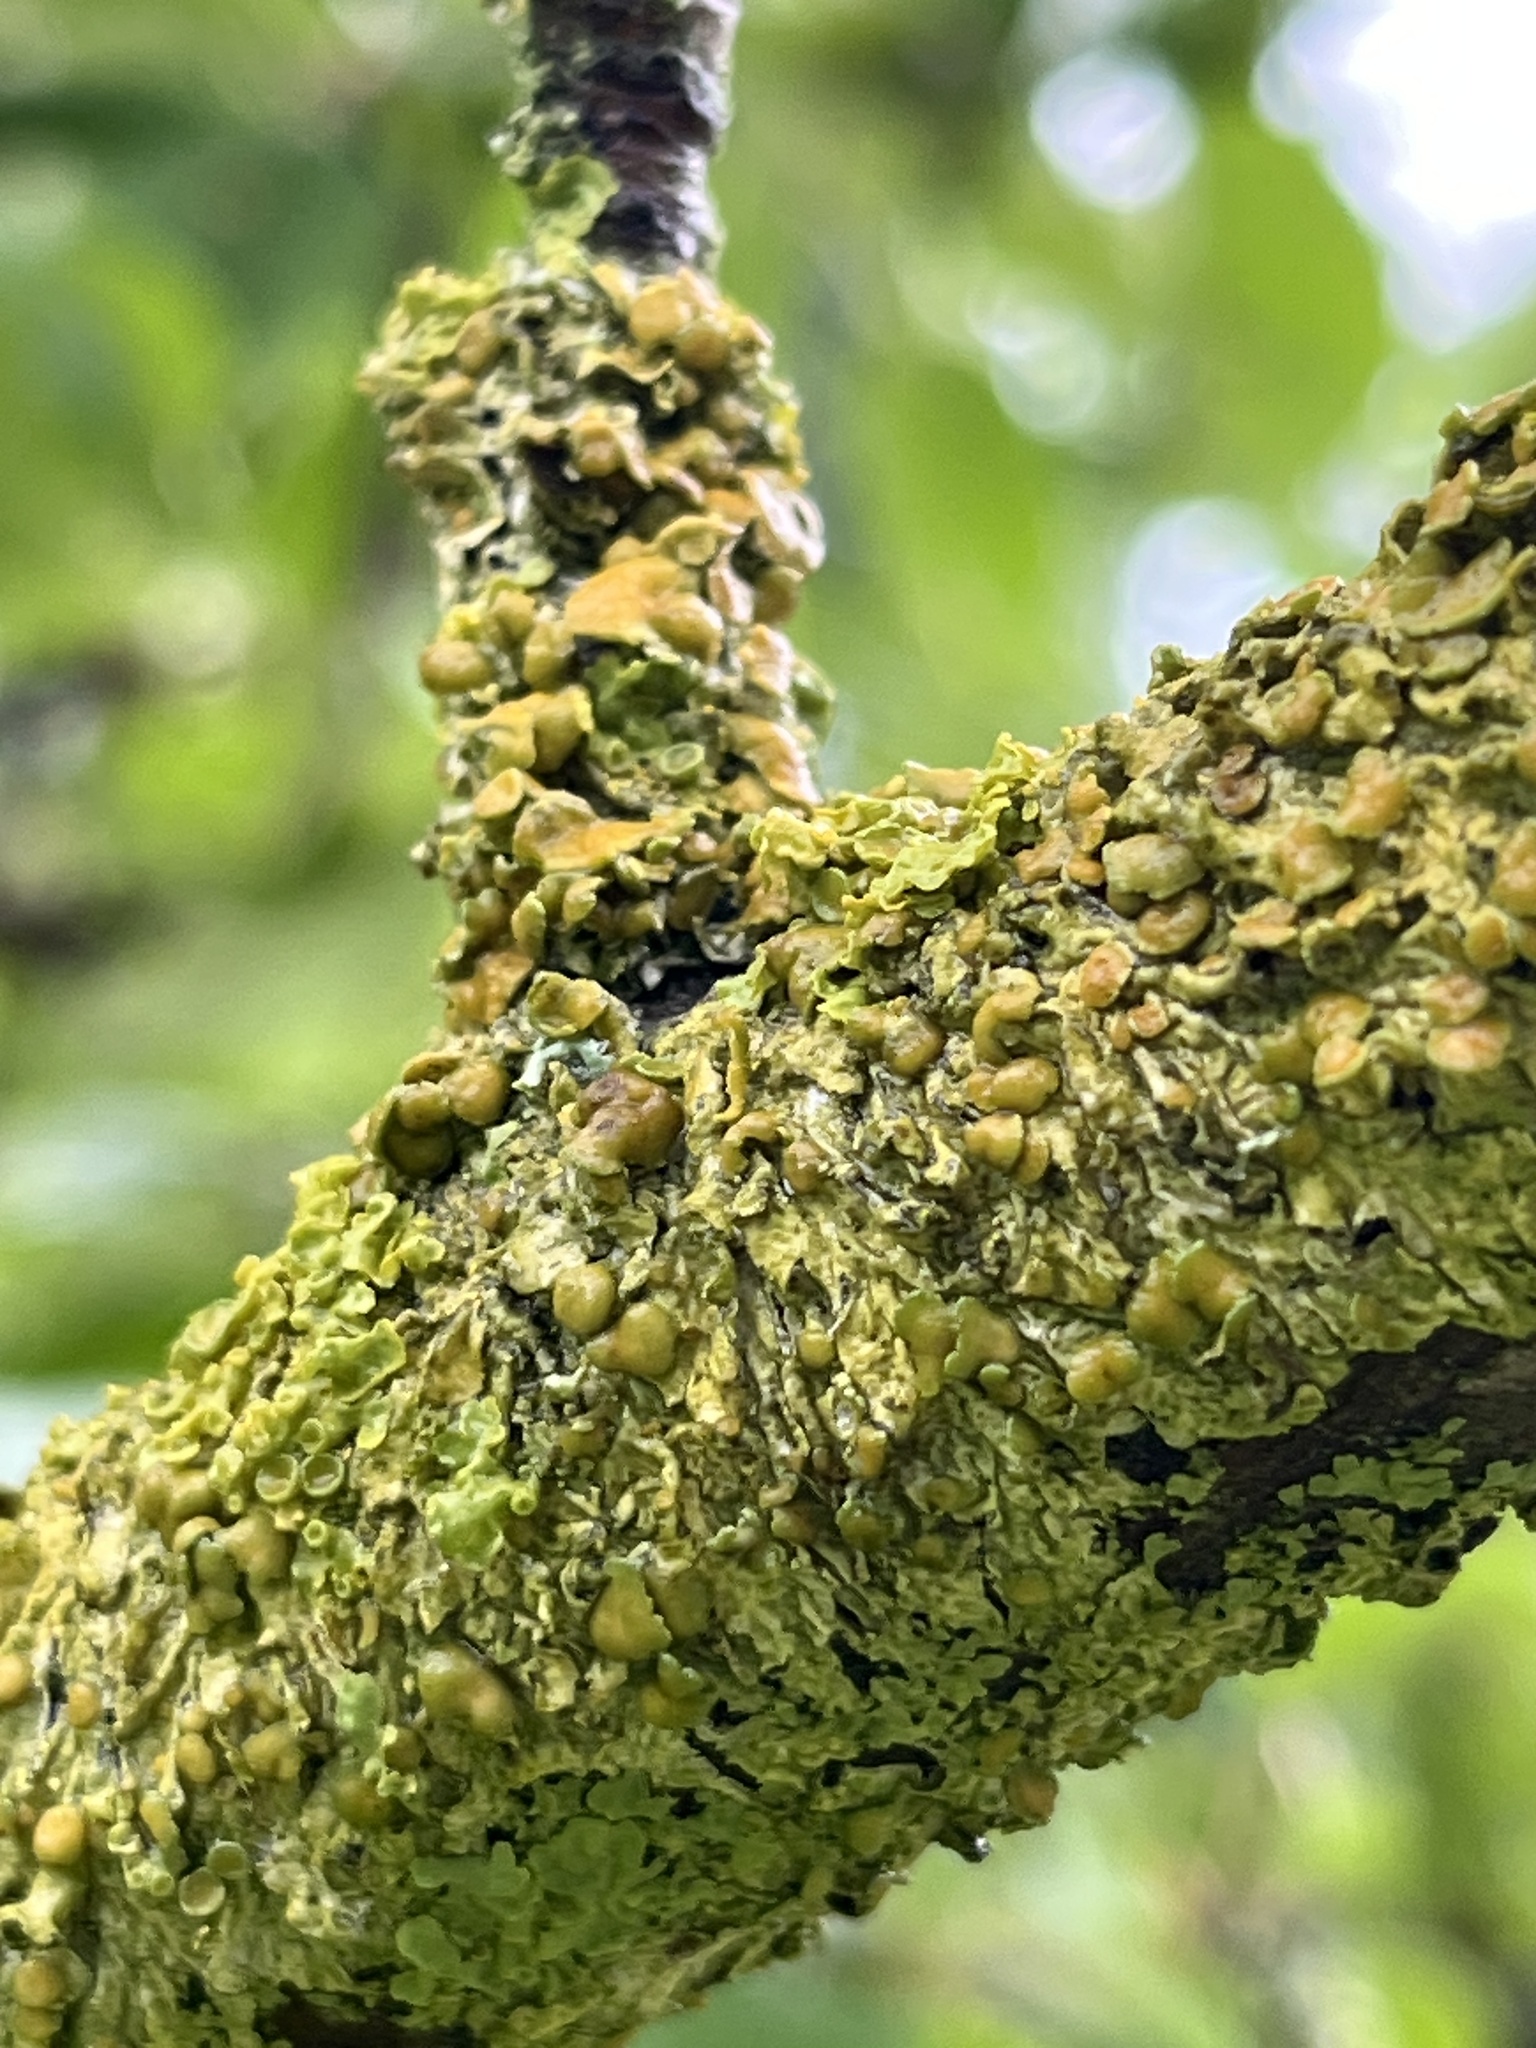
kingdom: Fungi
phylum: Ascomycota
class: Lecanoromycetes
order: Teloschistales
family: Teloschistaceae
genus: Xanthoria
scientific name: Xanthoria parietina
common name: Common orange lichen
